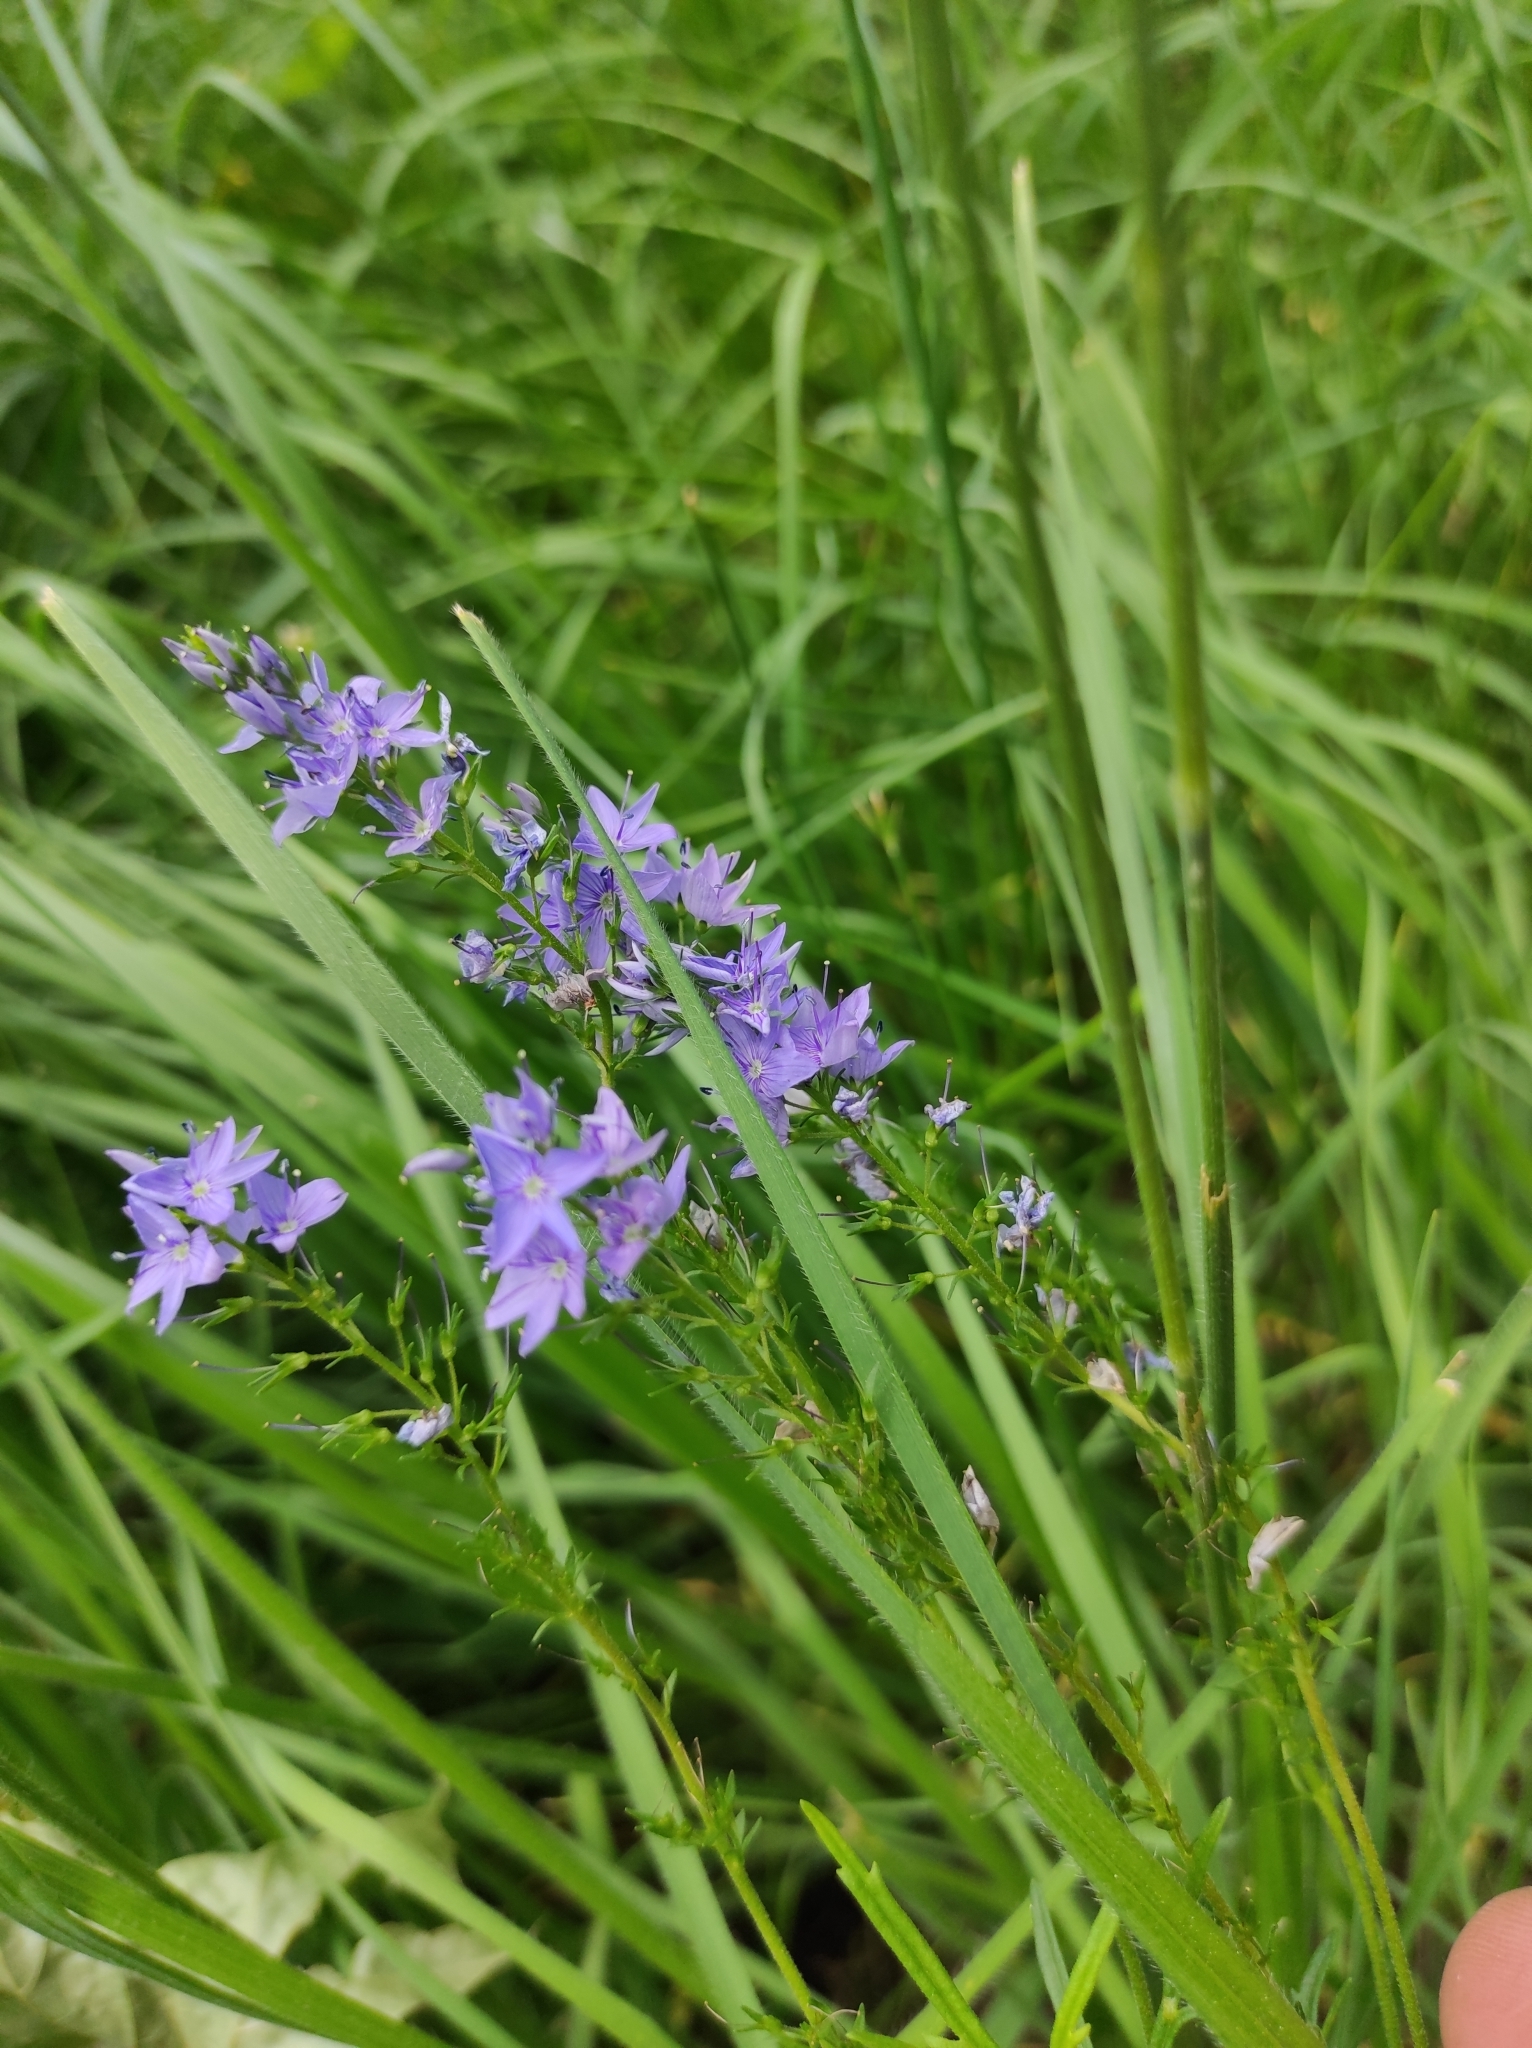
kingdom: Plantae
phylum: Tracheophyta
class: Magnoliopsida
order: Lamiales
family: Plantaginaceae
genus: Veronica
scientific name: Veronica austriaca
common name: Large speedwell
